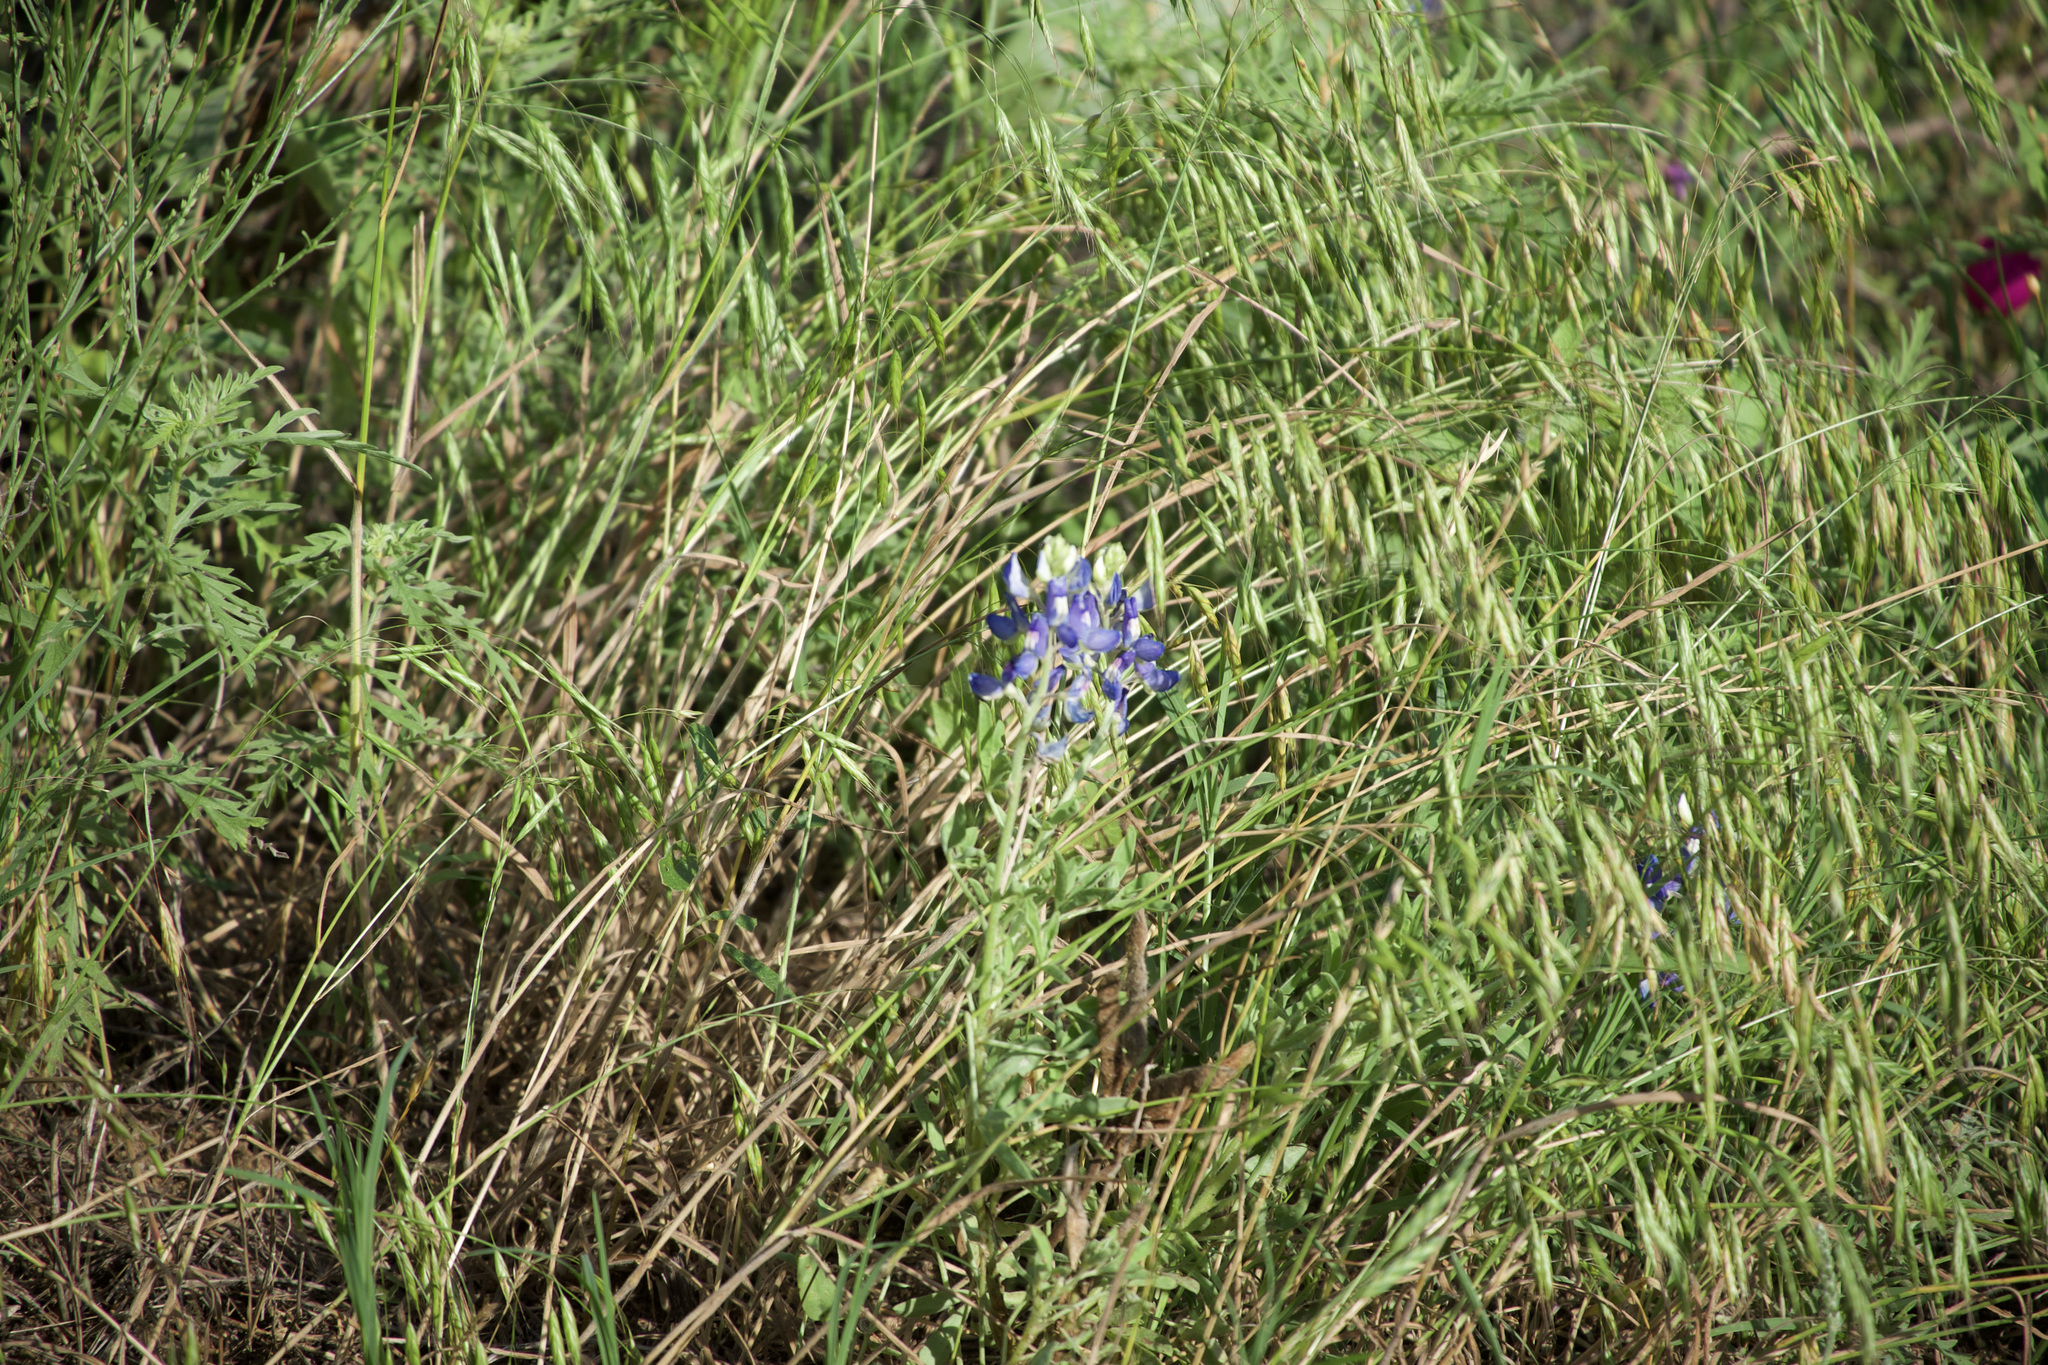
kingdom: Plantae
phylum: Tracheophyta
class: Magnoliopsida
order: Fabales
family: Fabaceae
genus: Lupinus
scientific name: Lupinus texensis
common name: Texas bluebonnet
